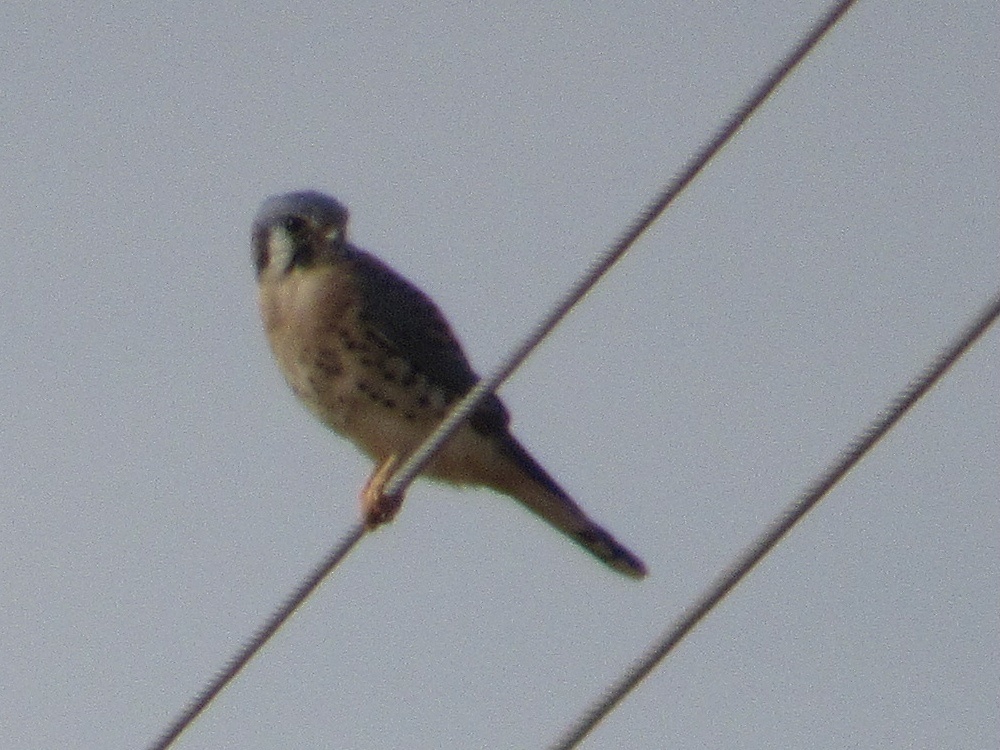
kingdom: Animalia
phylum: Chordata
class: Aves
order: Falconiformes
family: Falconidae
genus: Falco
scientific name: Falco sparverius
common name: American kestrel
